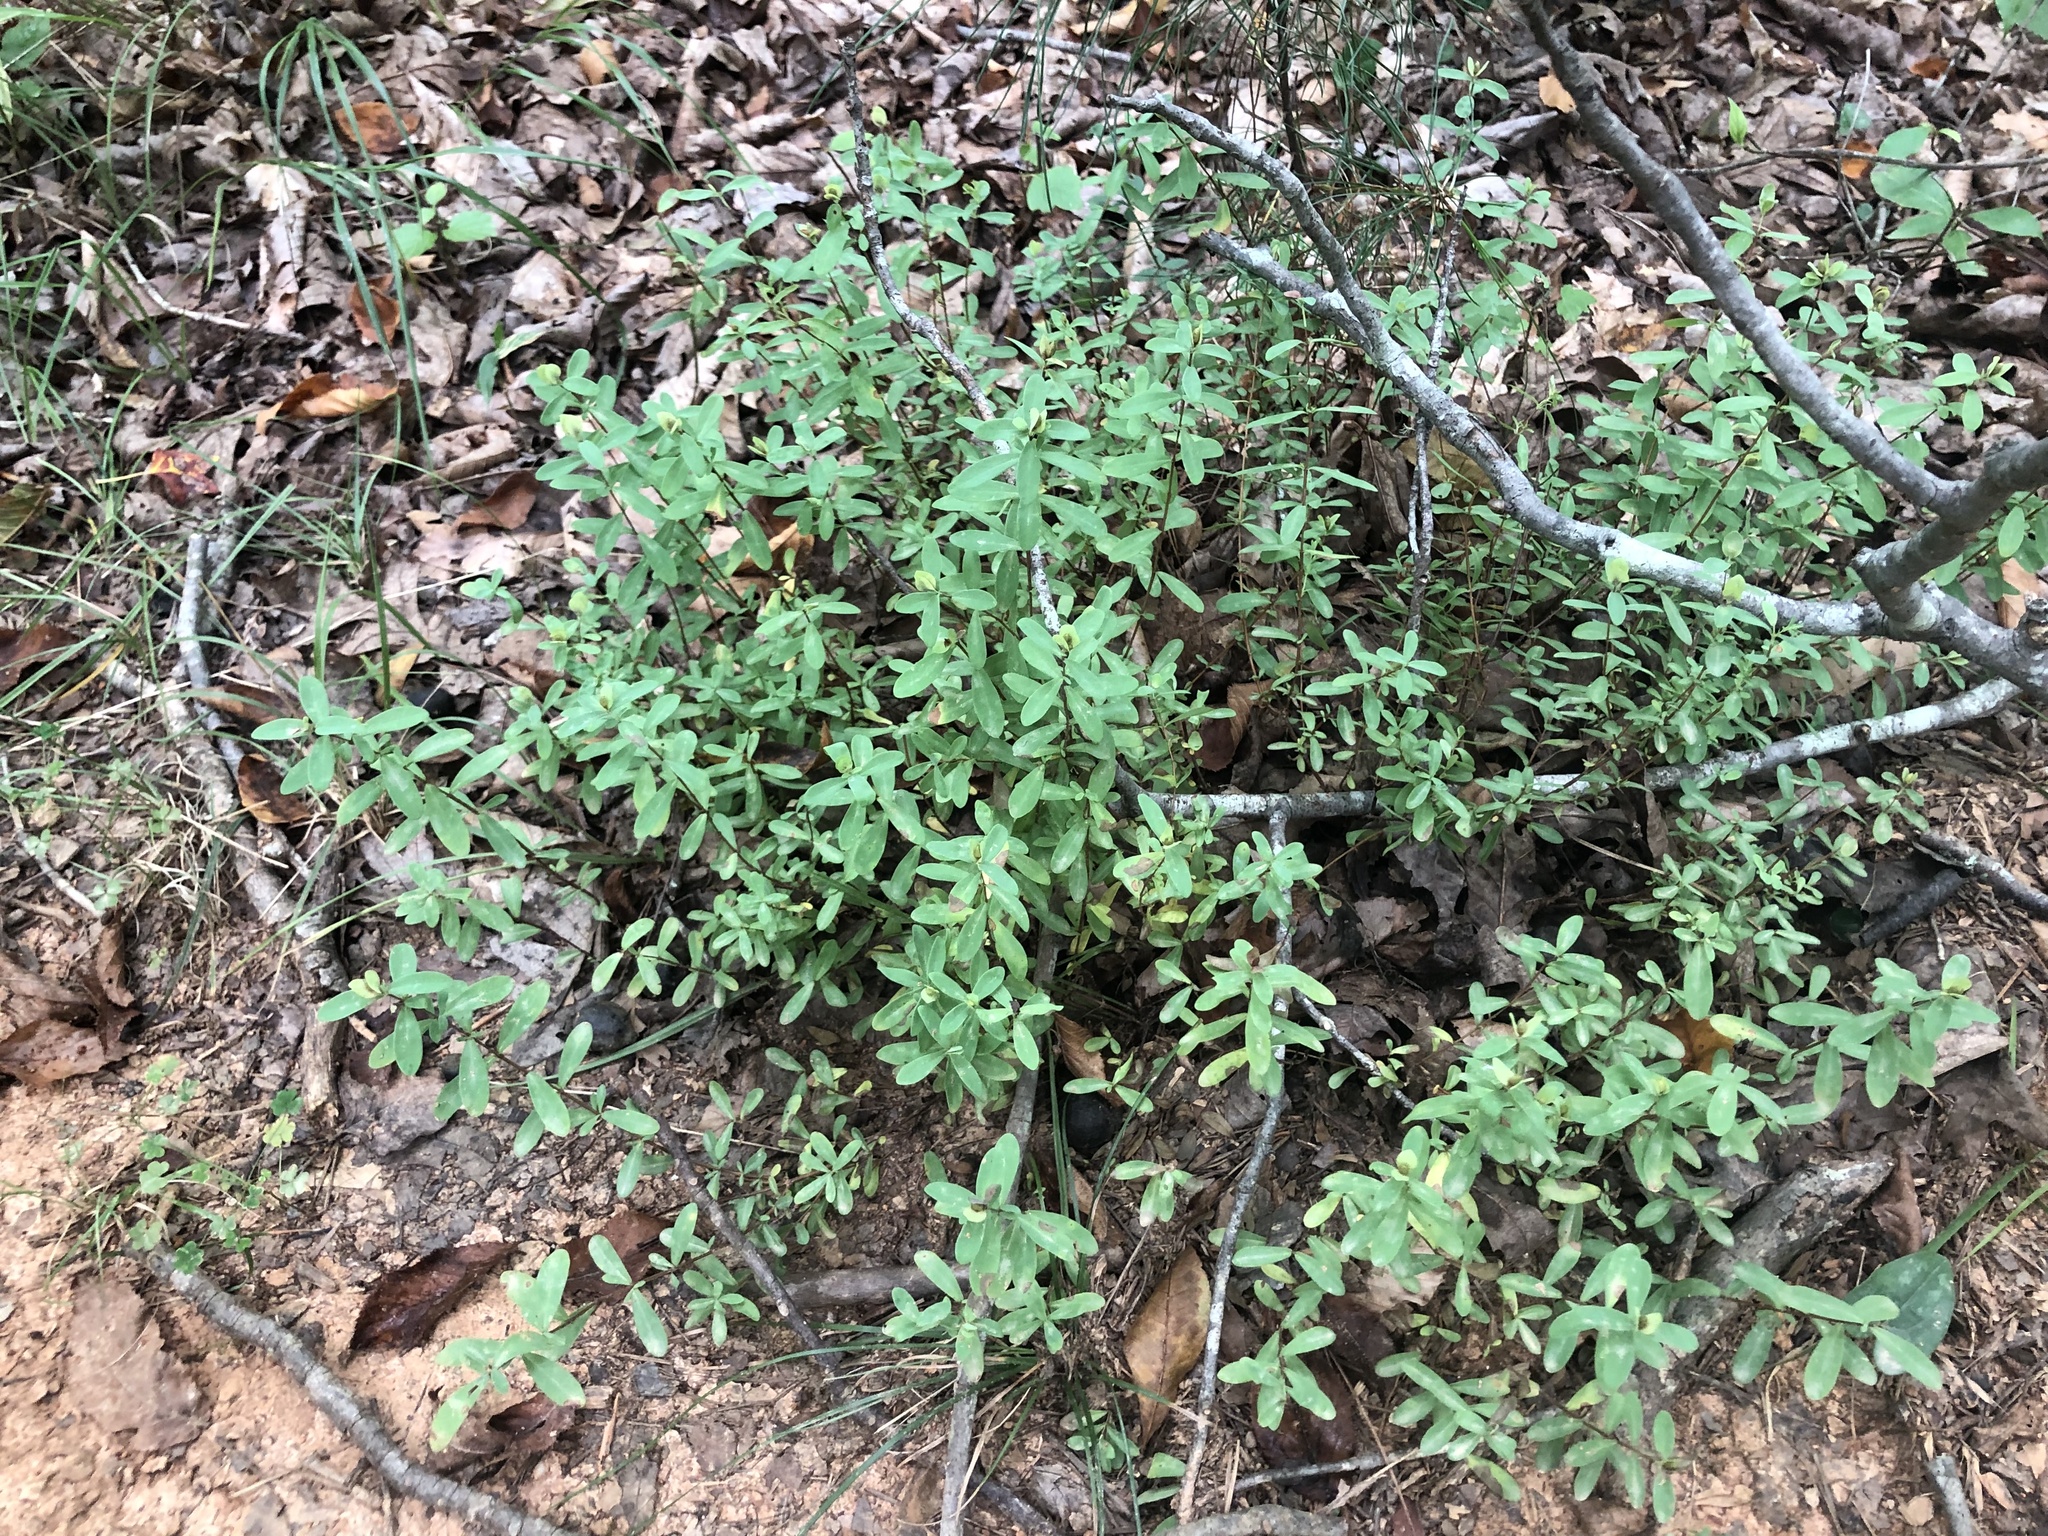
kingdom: Plantae
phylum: Tracheophyta
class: Magnoliopsida
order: Malpighiales
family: Hypericaceae
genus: Hypericum
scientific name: Hypericum hypericoides
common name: St. andrew's cross
